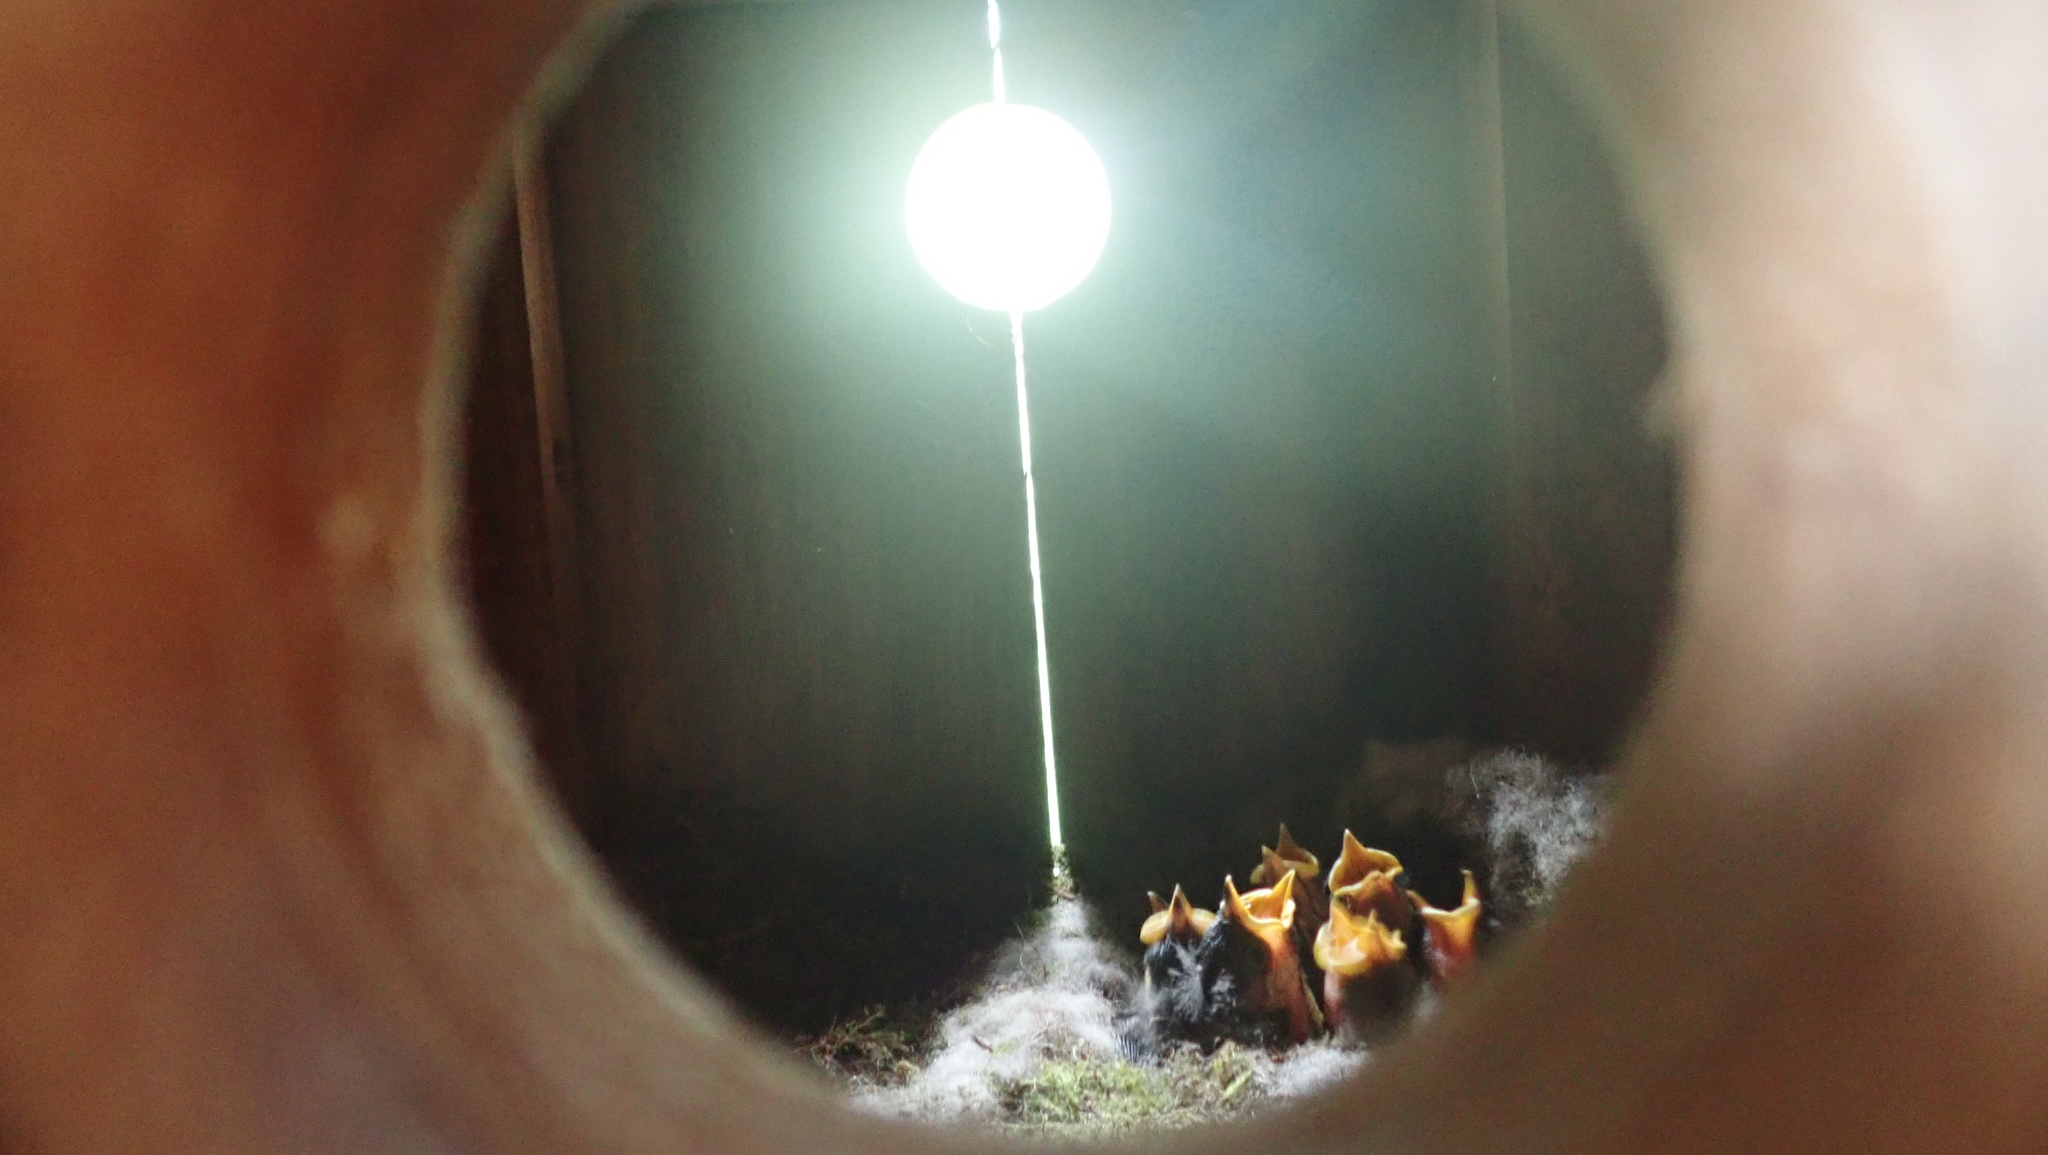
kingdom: Animalia
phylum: Chordata
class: Aves
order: Passeriformes
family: Paridae
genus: Parus
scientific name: Parus major
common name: Great tit
